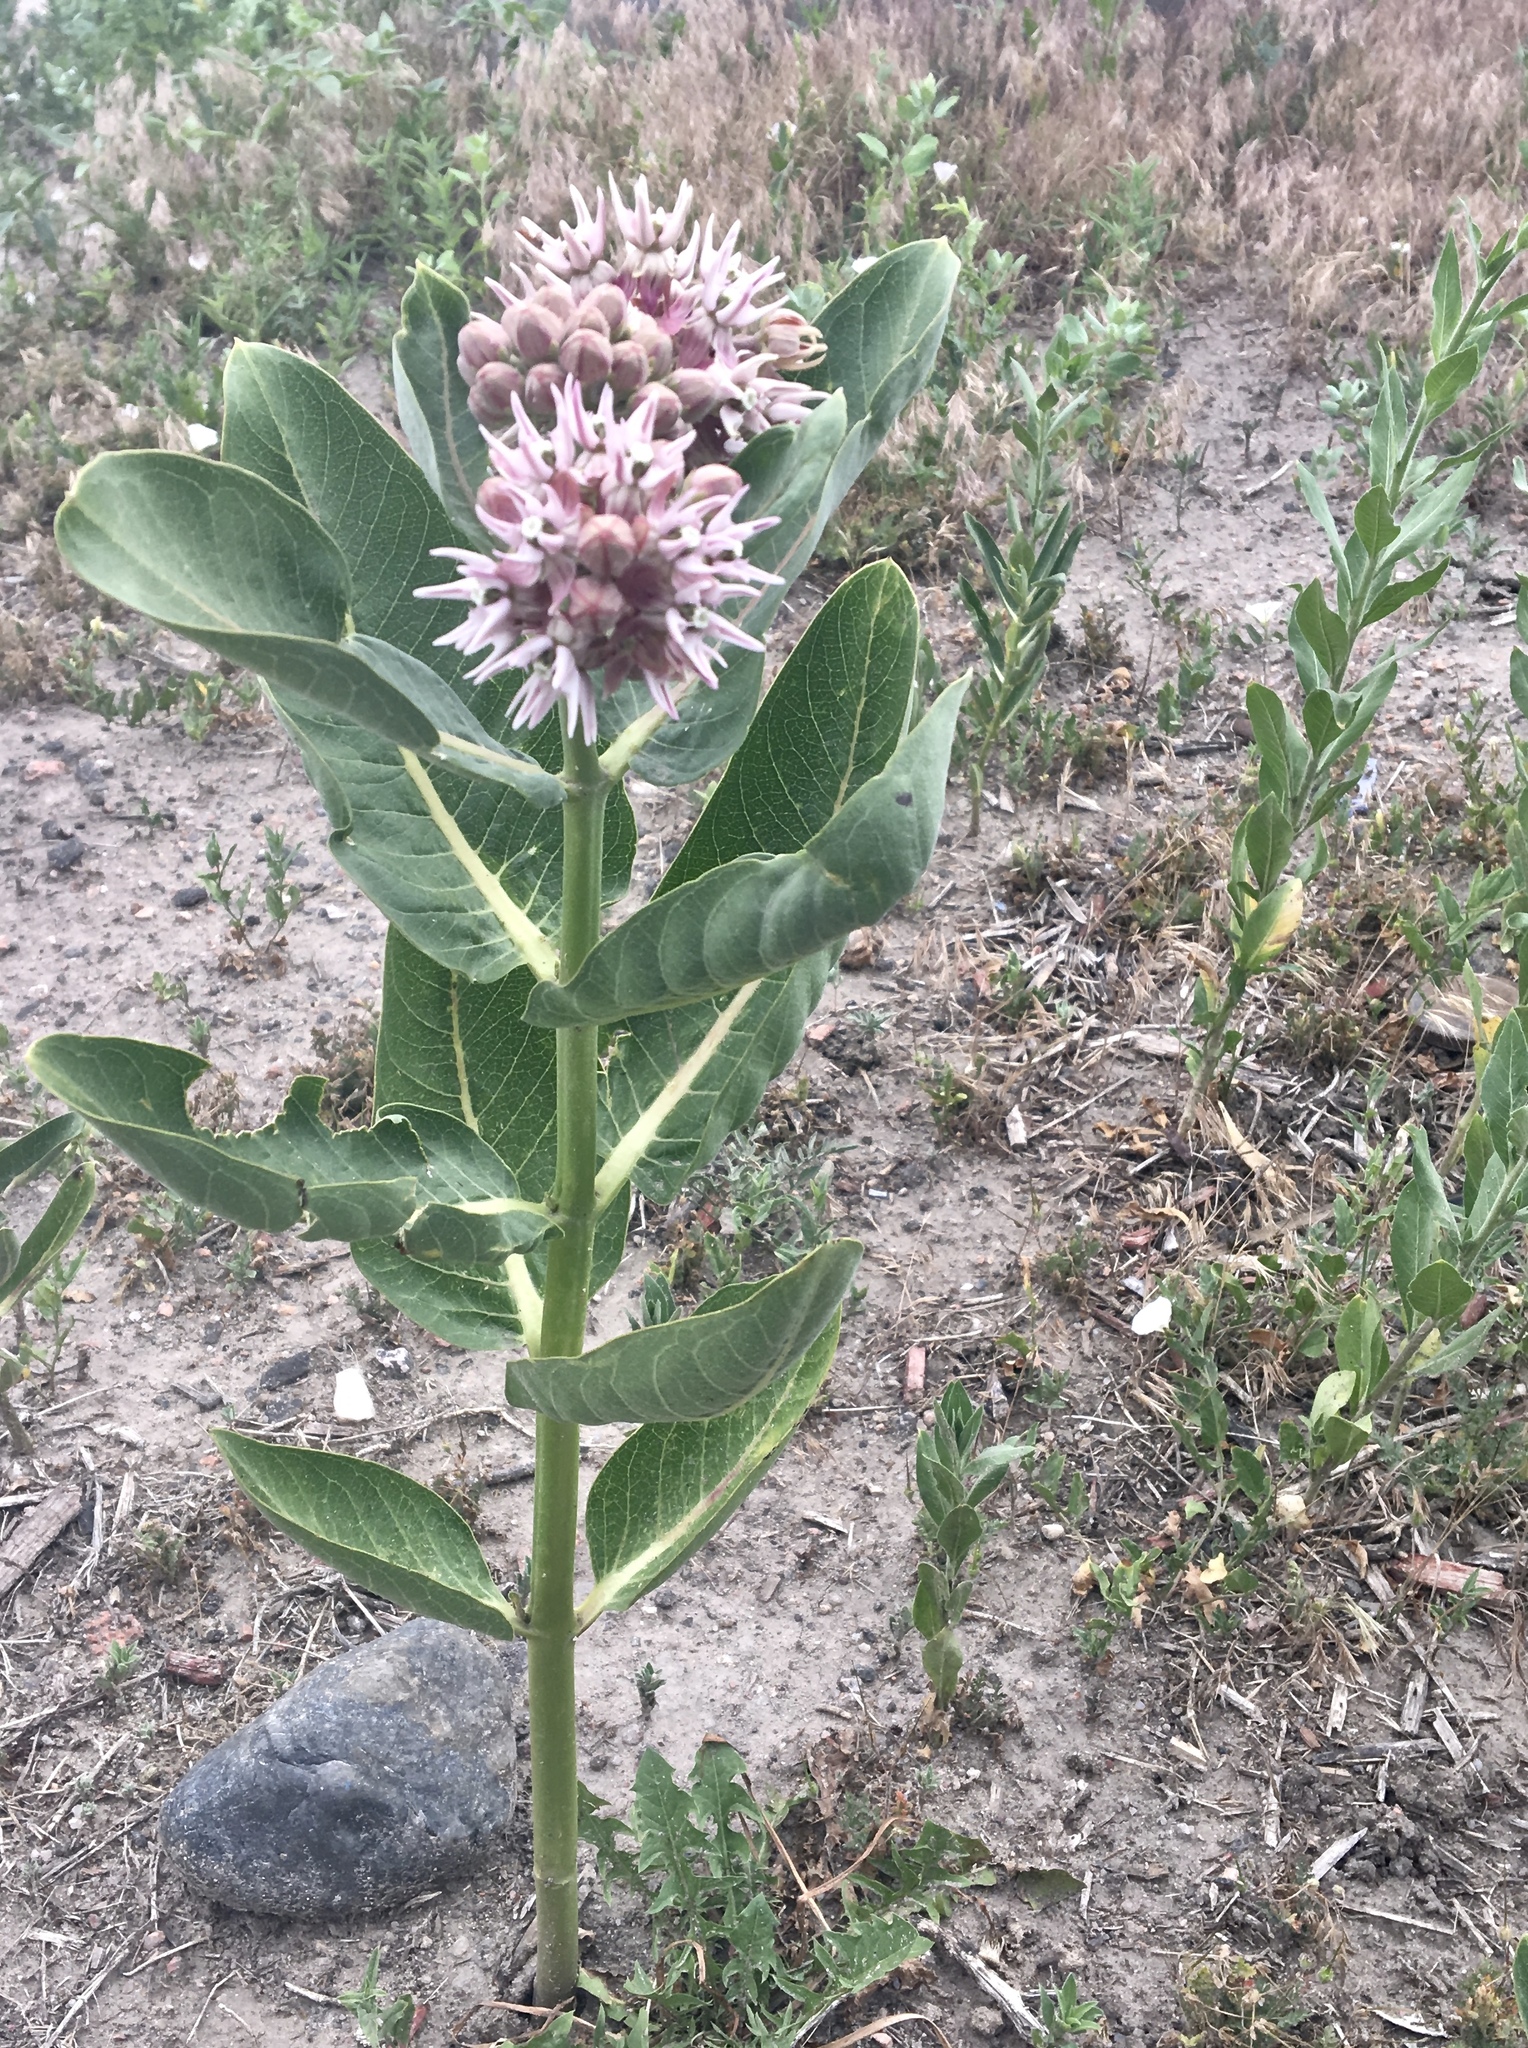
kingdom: Plantae
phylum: Tracheophyta
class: Magnoliopsida
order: Gentianales
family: Apocynaceae
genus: Asclepias
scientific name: Asclepias speciosa
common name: Showy milkweed
